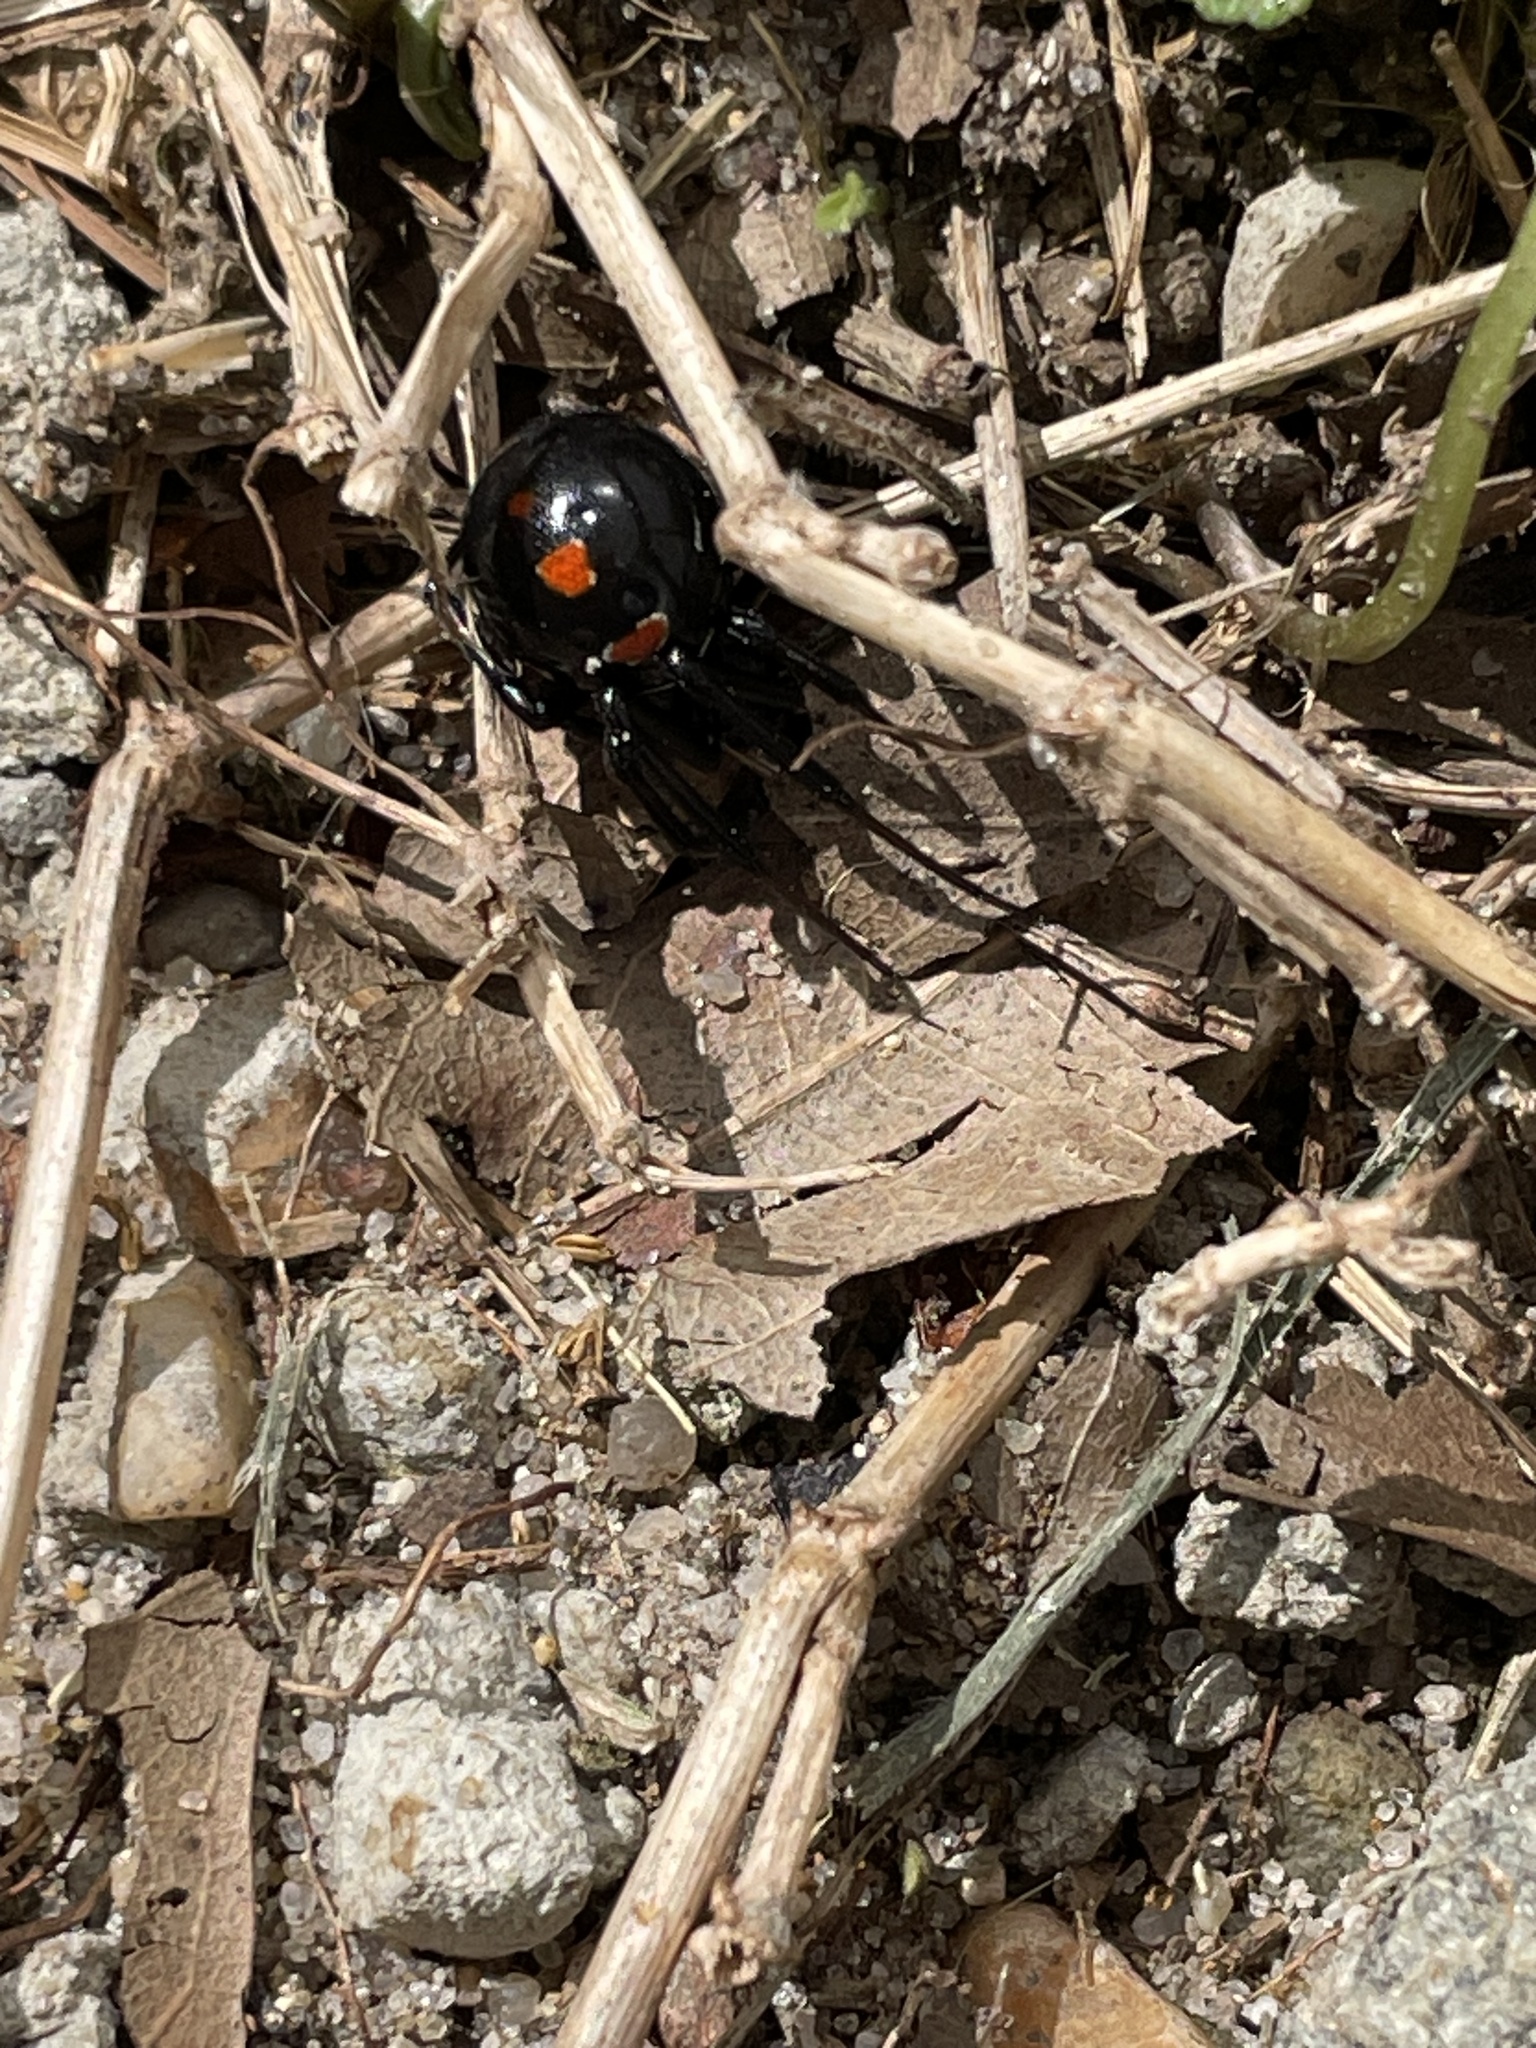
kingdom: Animalia
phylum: Arthropoda
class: Arachnida
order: Araneae
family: Theridiidae
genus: Latrodectus
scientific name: Latrodectus mactans
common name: Cobweb spiders
